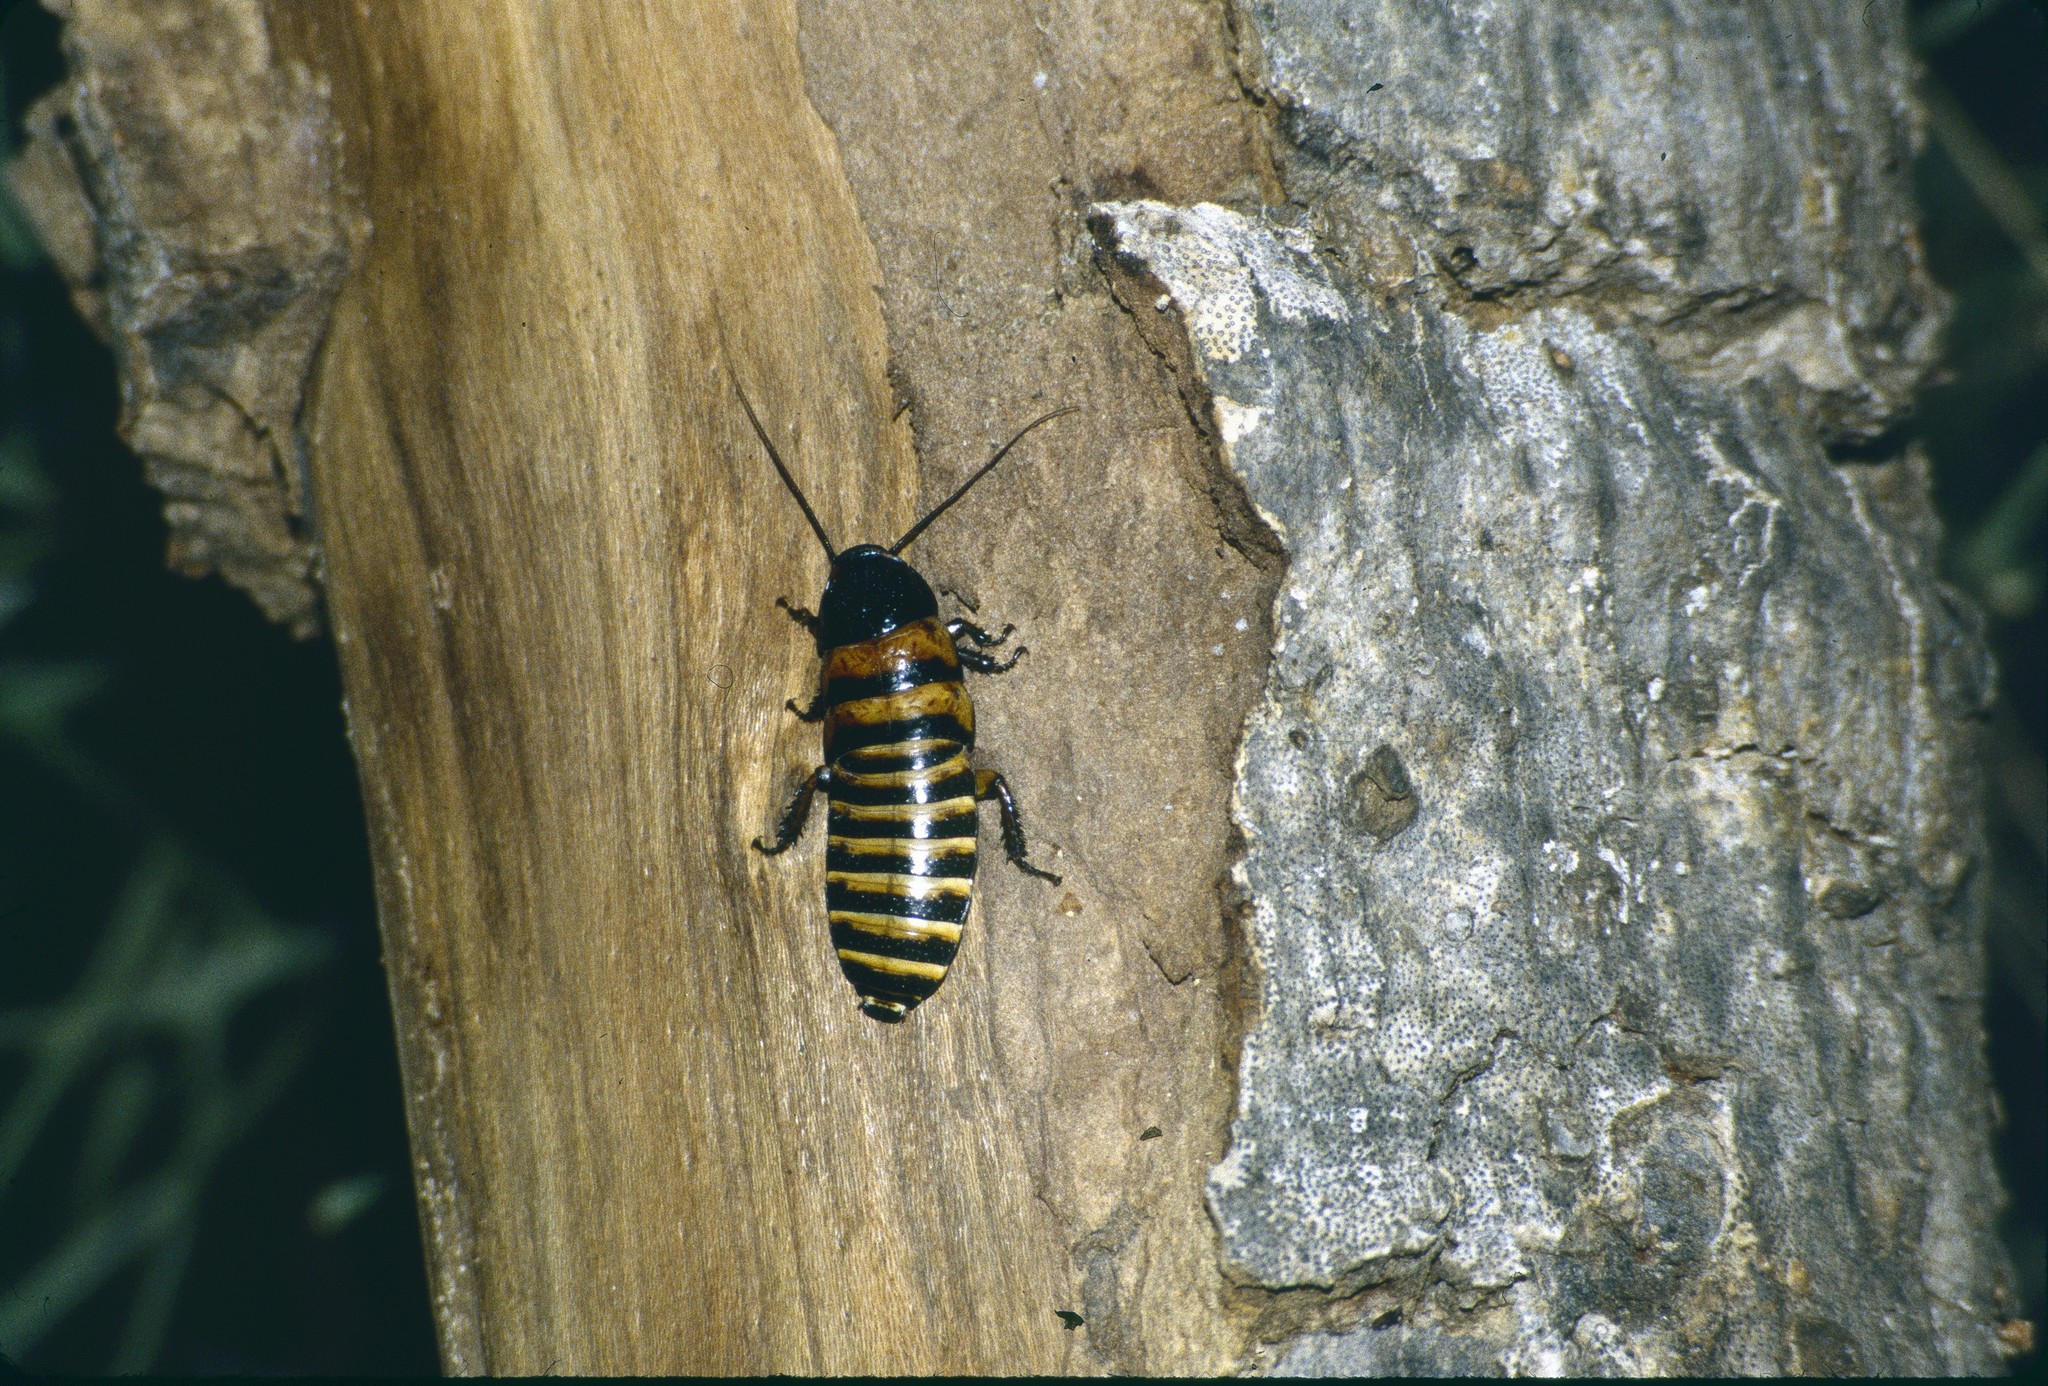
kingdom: Animalia
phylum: Arthropoda
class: Insecta
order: Blattodea
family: Blaberidae
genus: Elliptorhina
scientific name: Elliptorhina javanica
